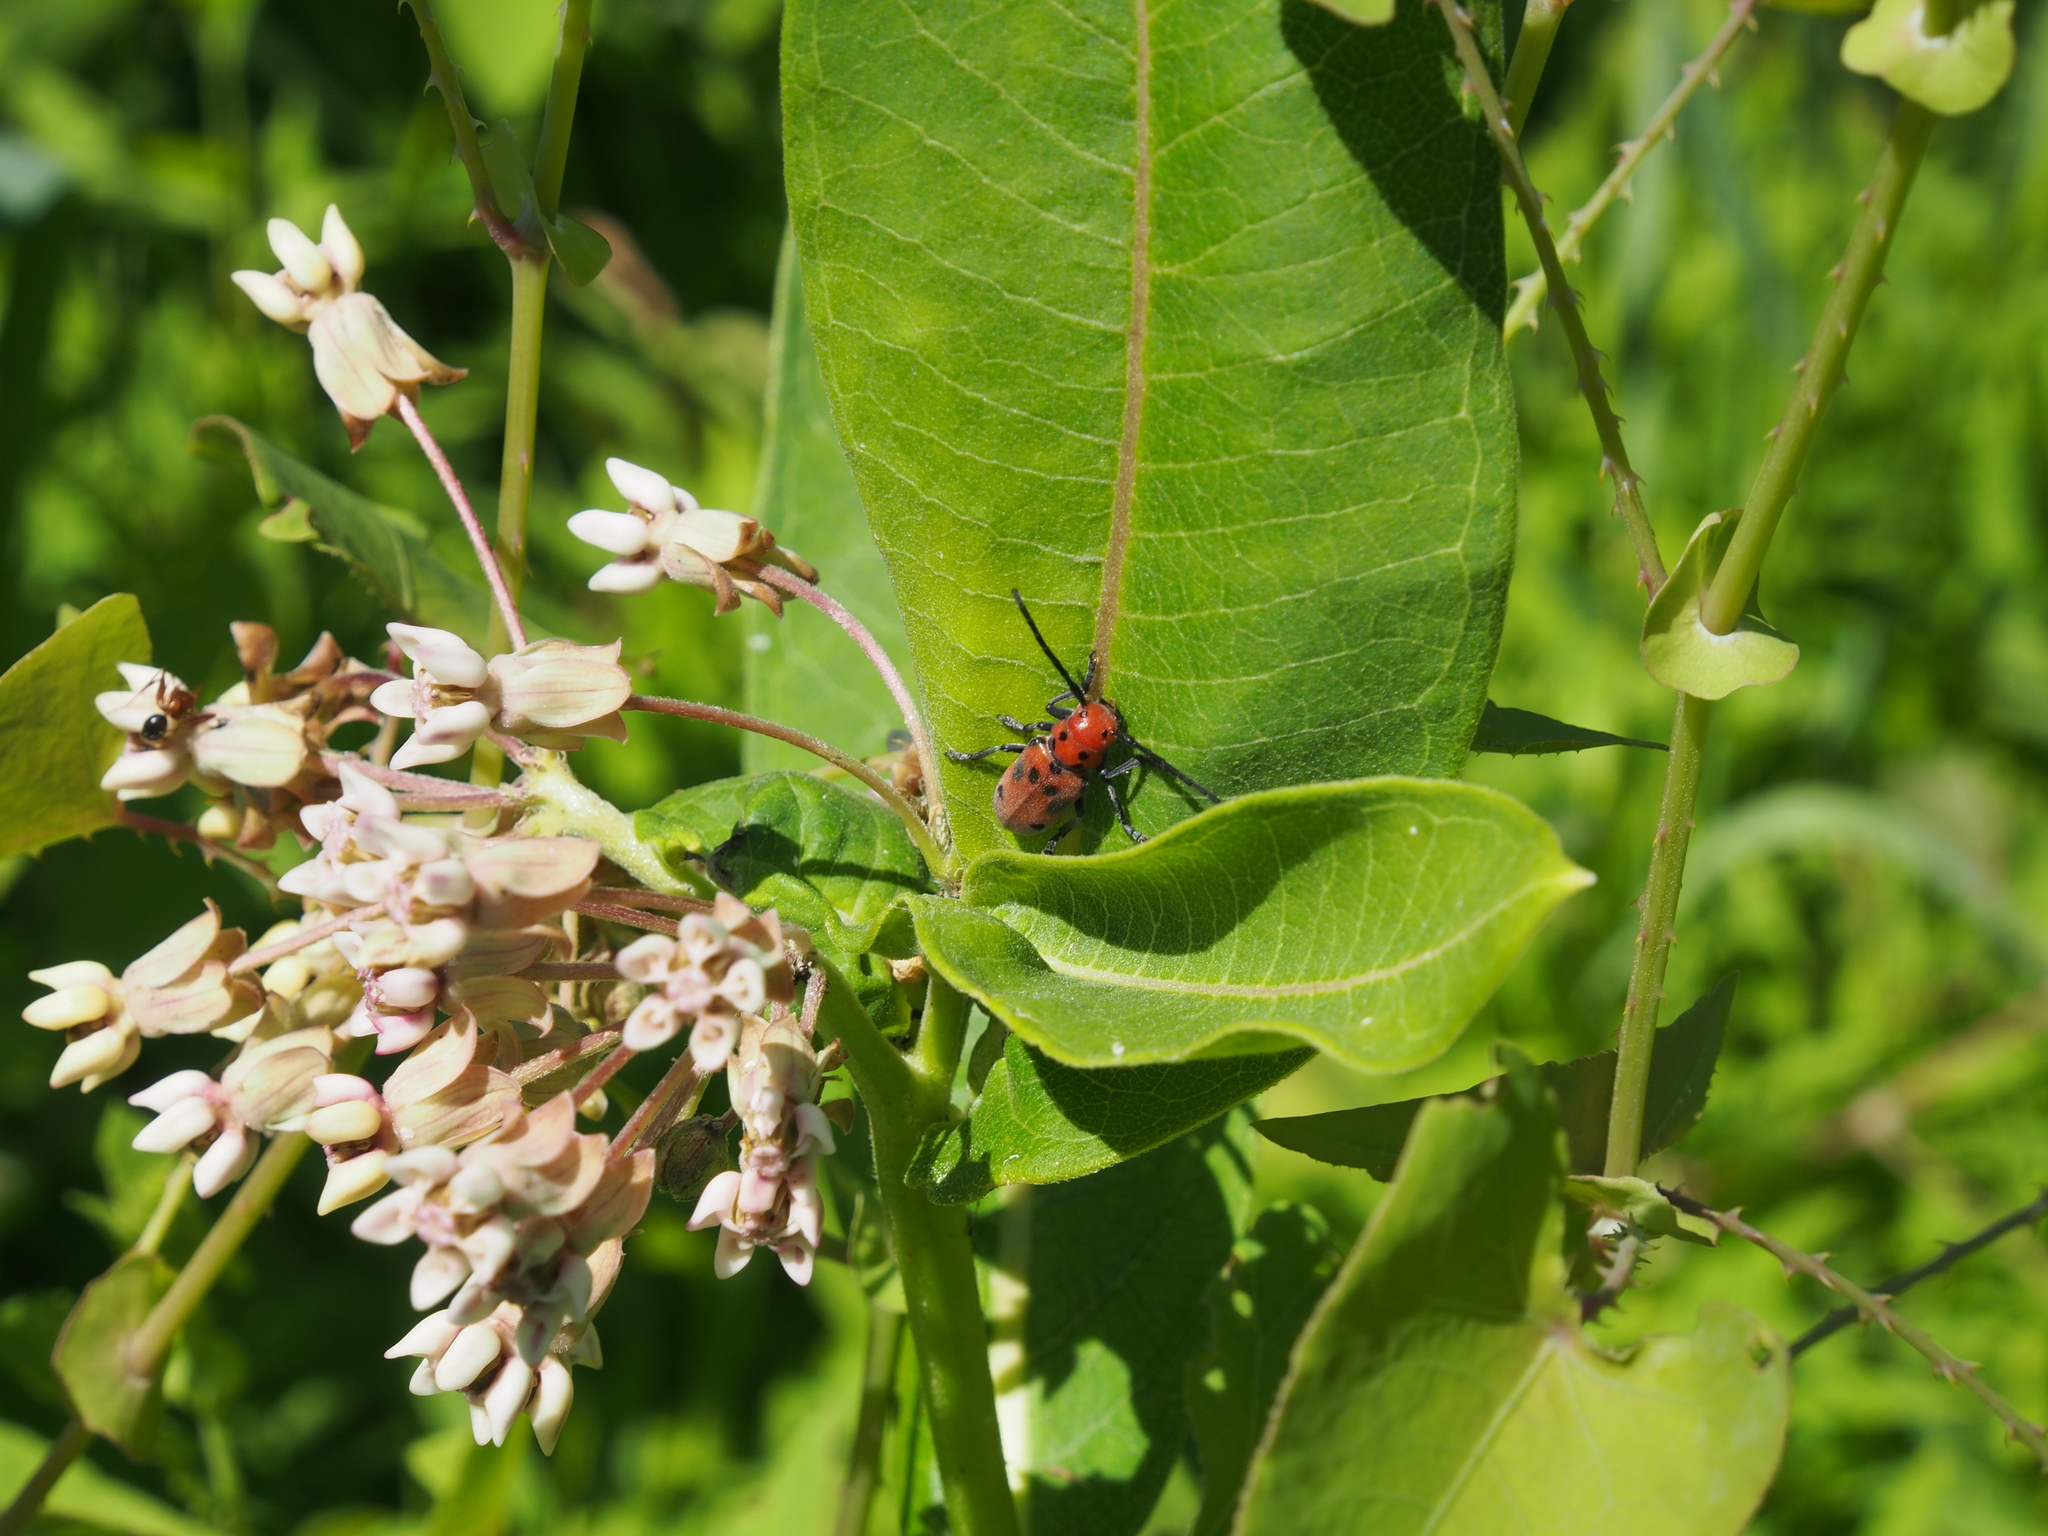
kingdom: Plantae
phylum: Tracheophyta
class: Magnoliopsida
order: Gentianales
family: Apocynaceae
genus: Asclepias
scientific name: Asclepias syriaca
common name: Common milkweed
